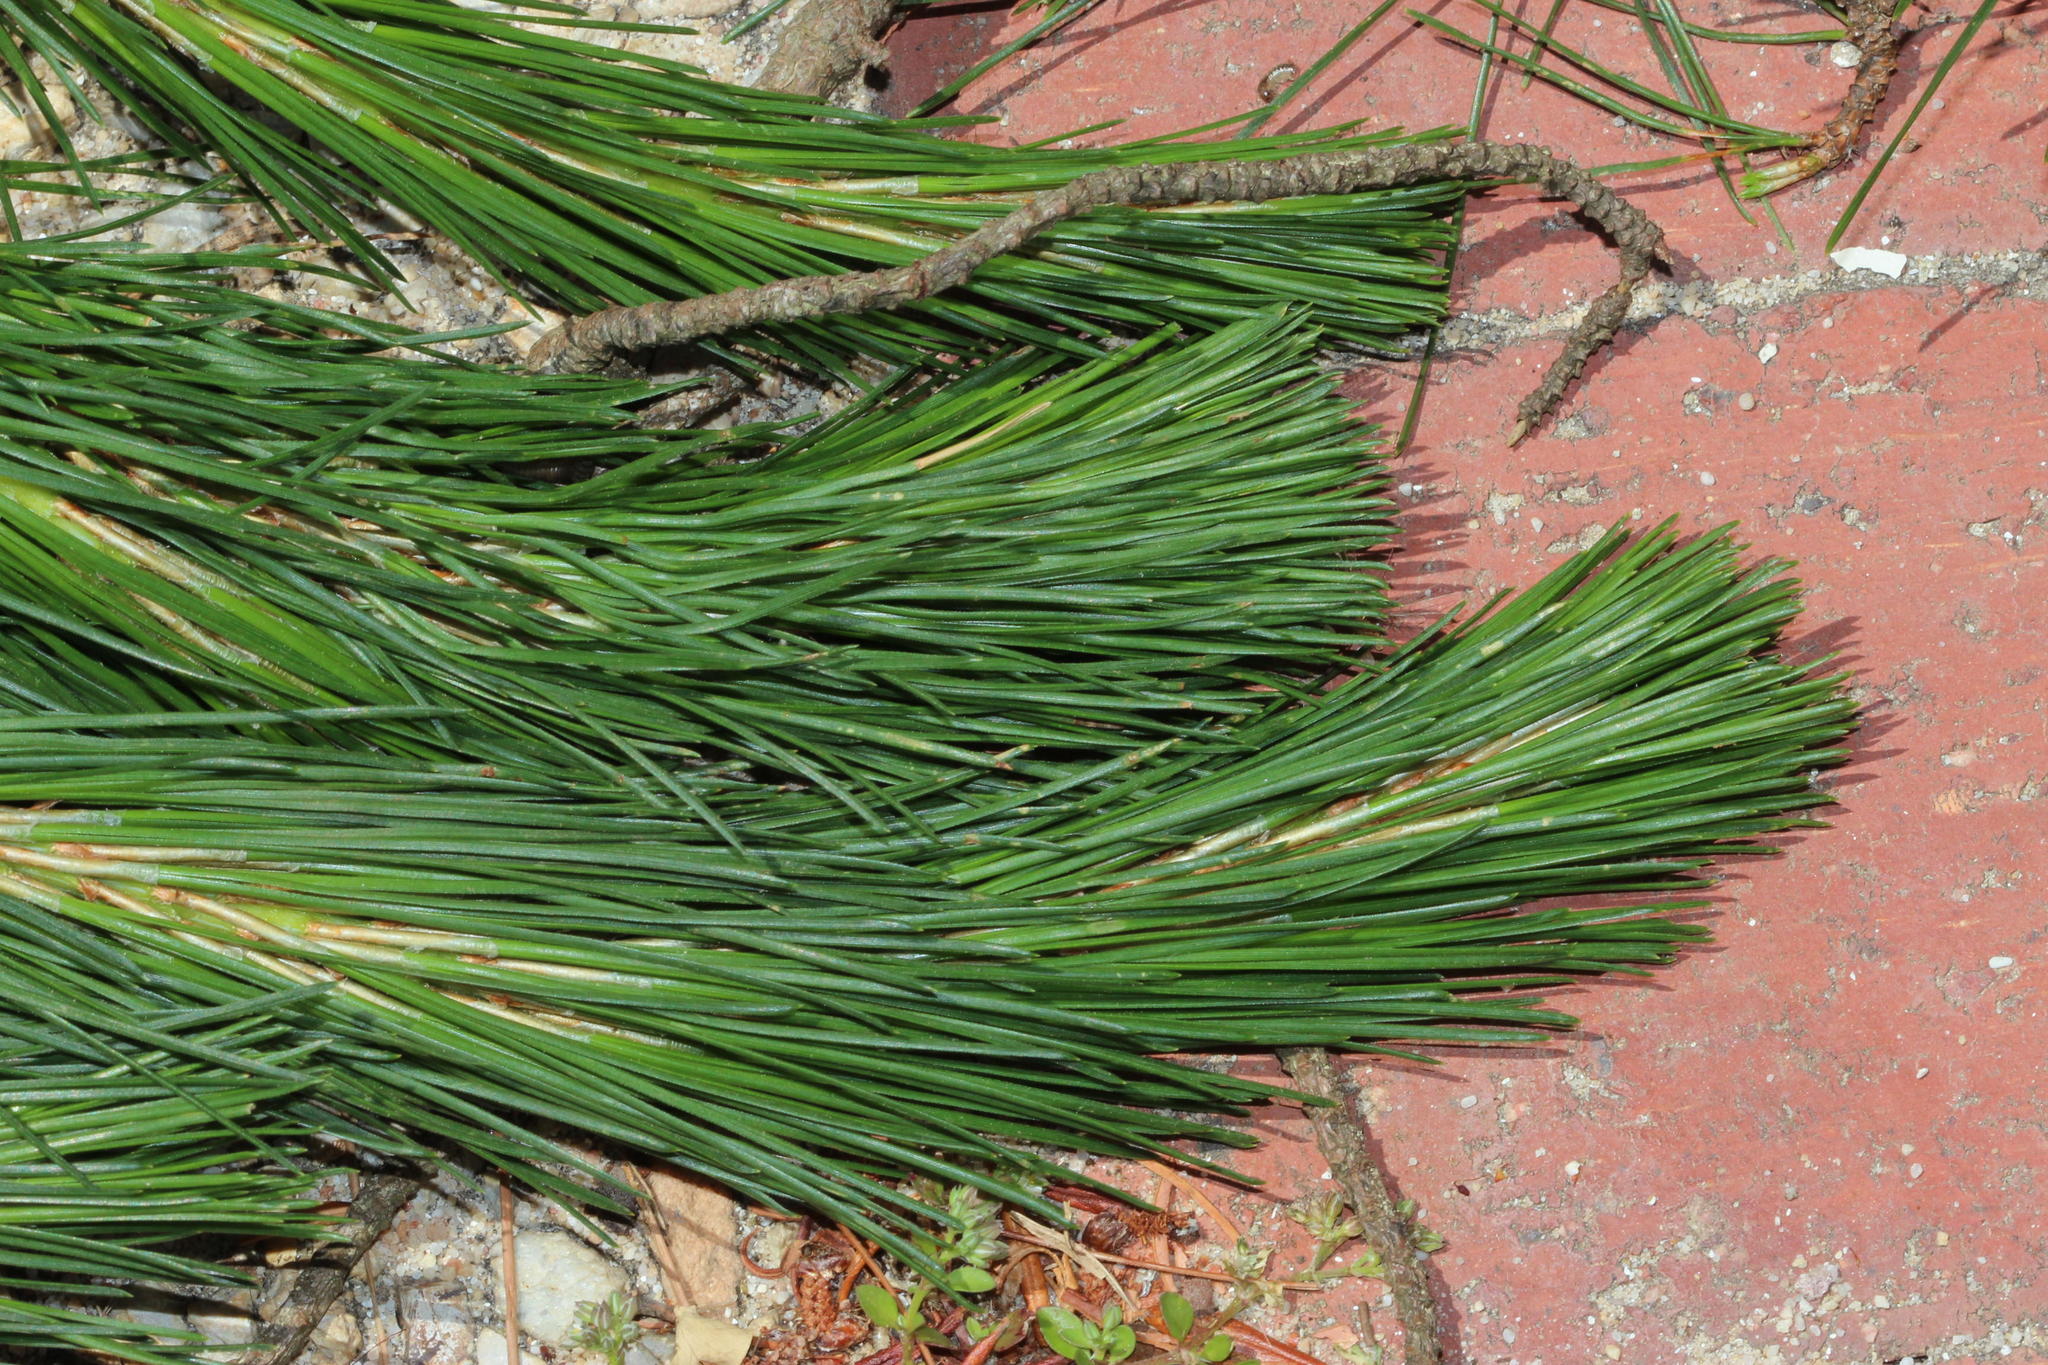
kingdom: Plantae
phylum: Tracheophyta
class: Pinopsida
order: Pinales
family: Pinaceae
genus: Pinus
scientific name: Pinus radiata
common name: Monterey pine
